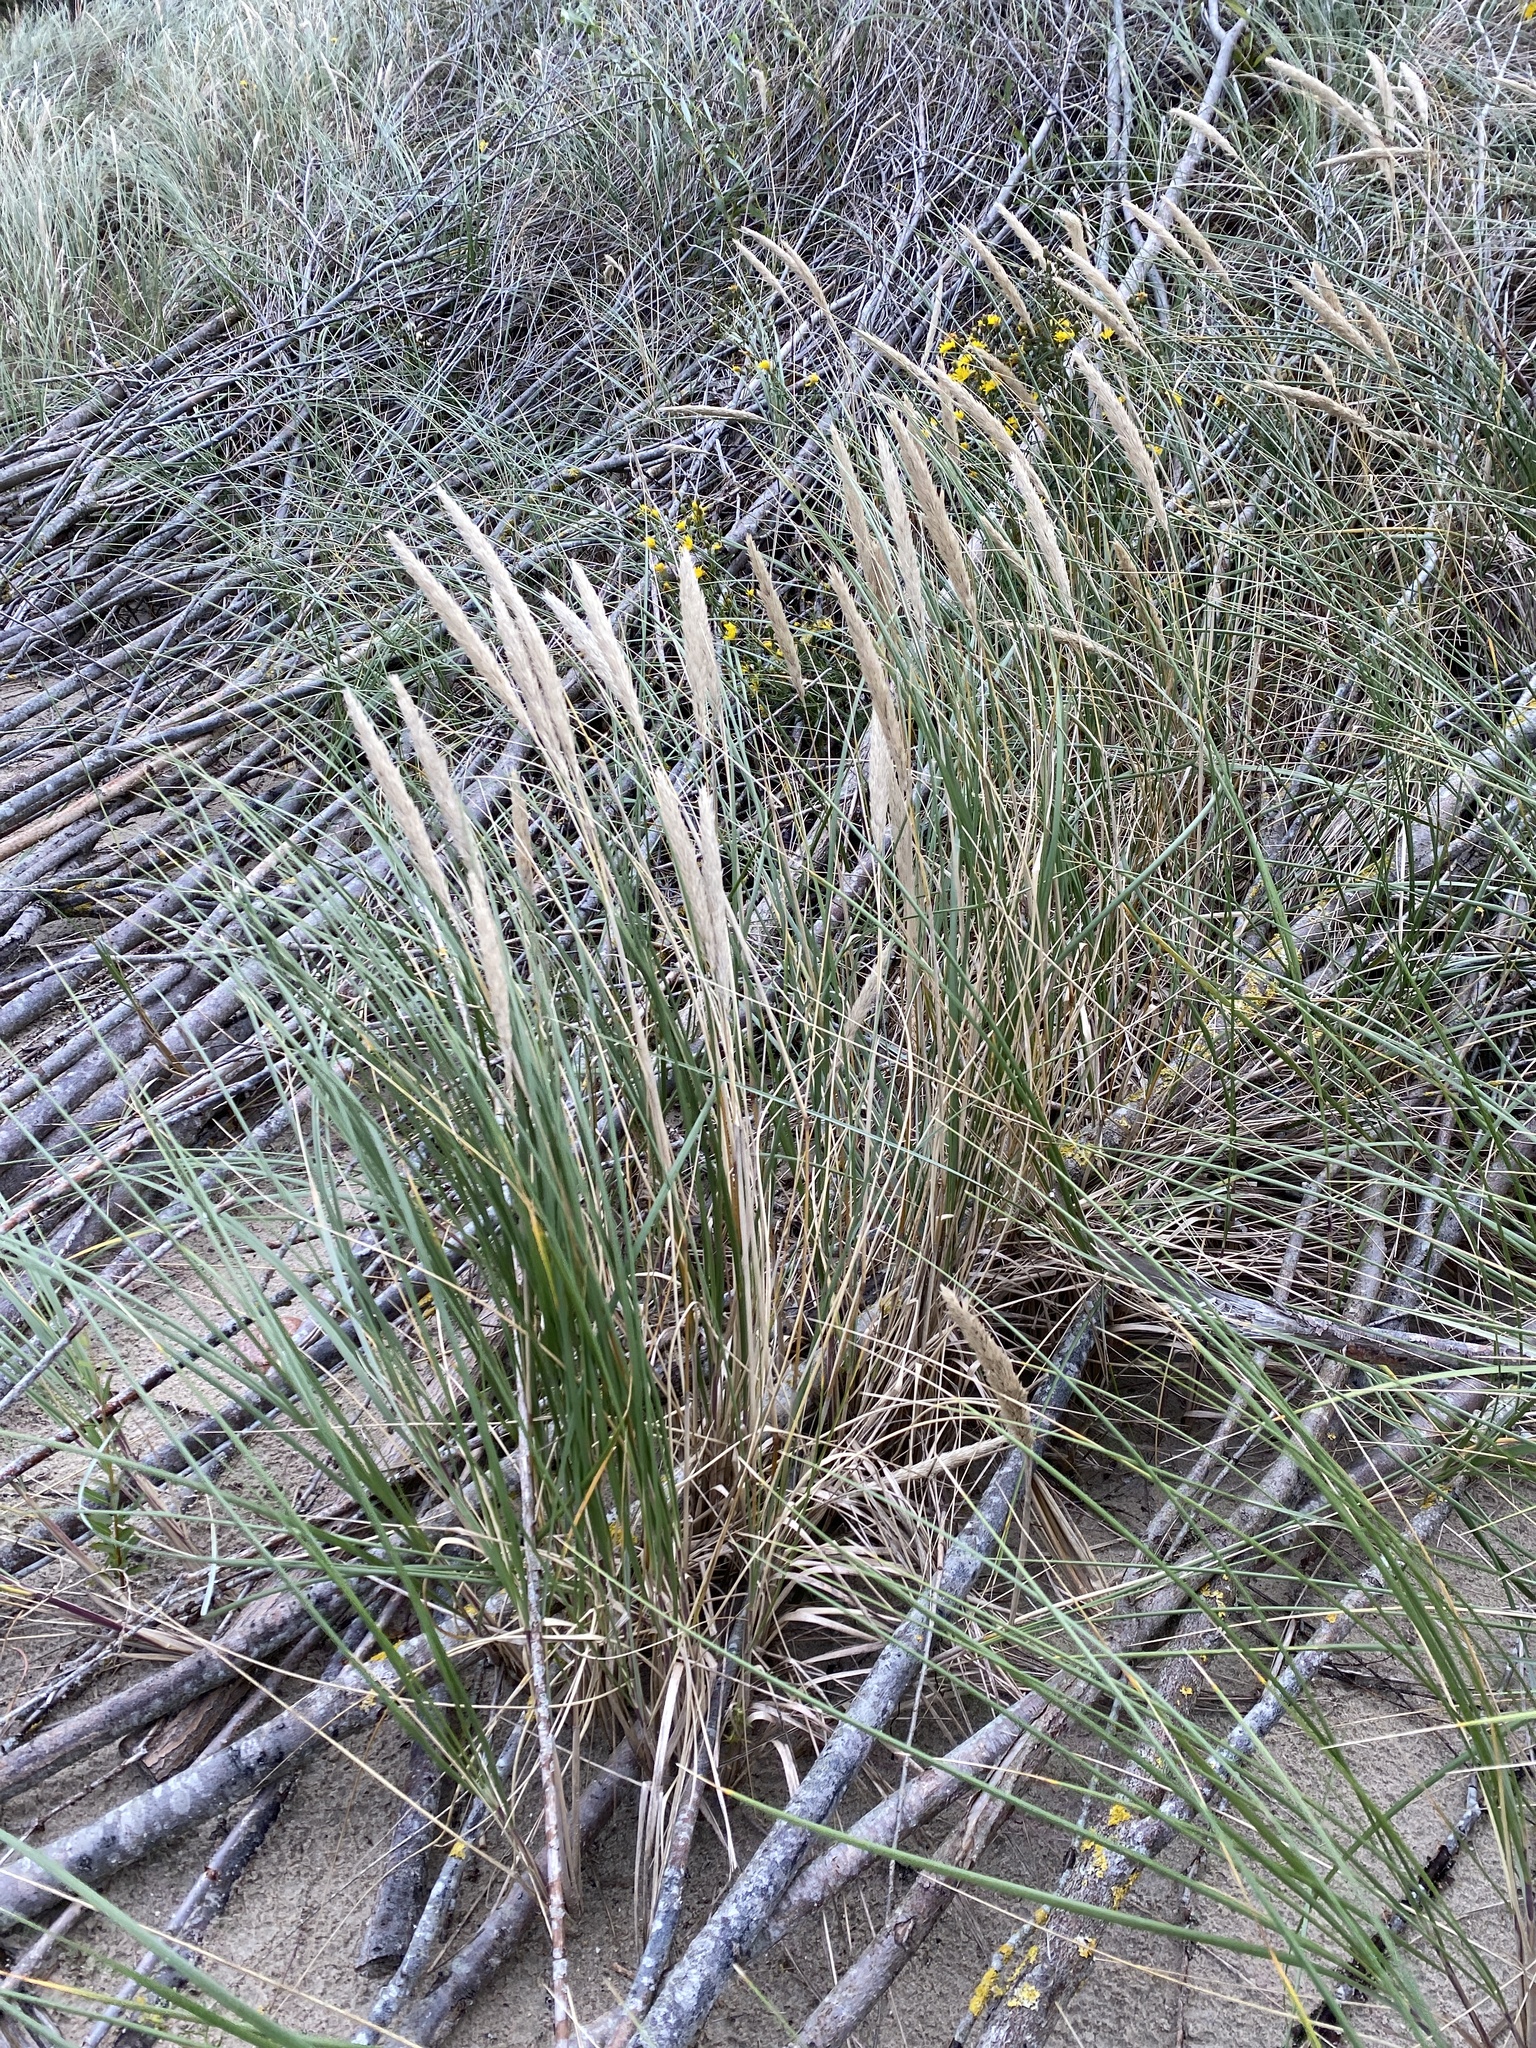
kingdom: Plantae
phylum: Tracheophyta
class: Liliopsida
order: Poales
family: Poaceae
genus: Calamagrostis
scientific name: Calamagrostis arenaria
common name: European beachgrass
